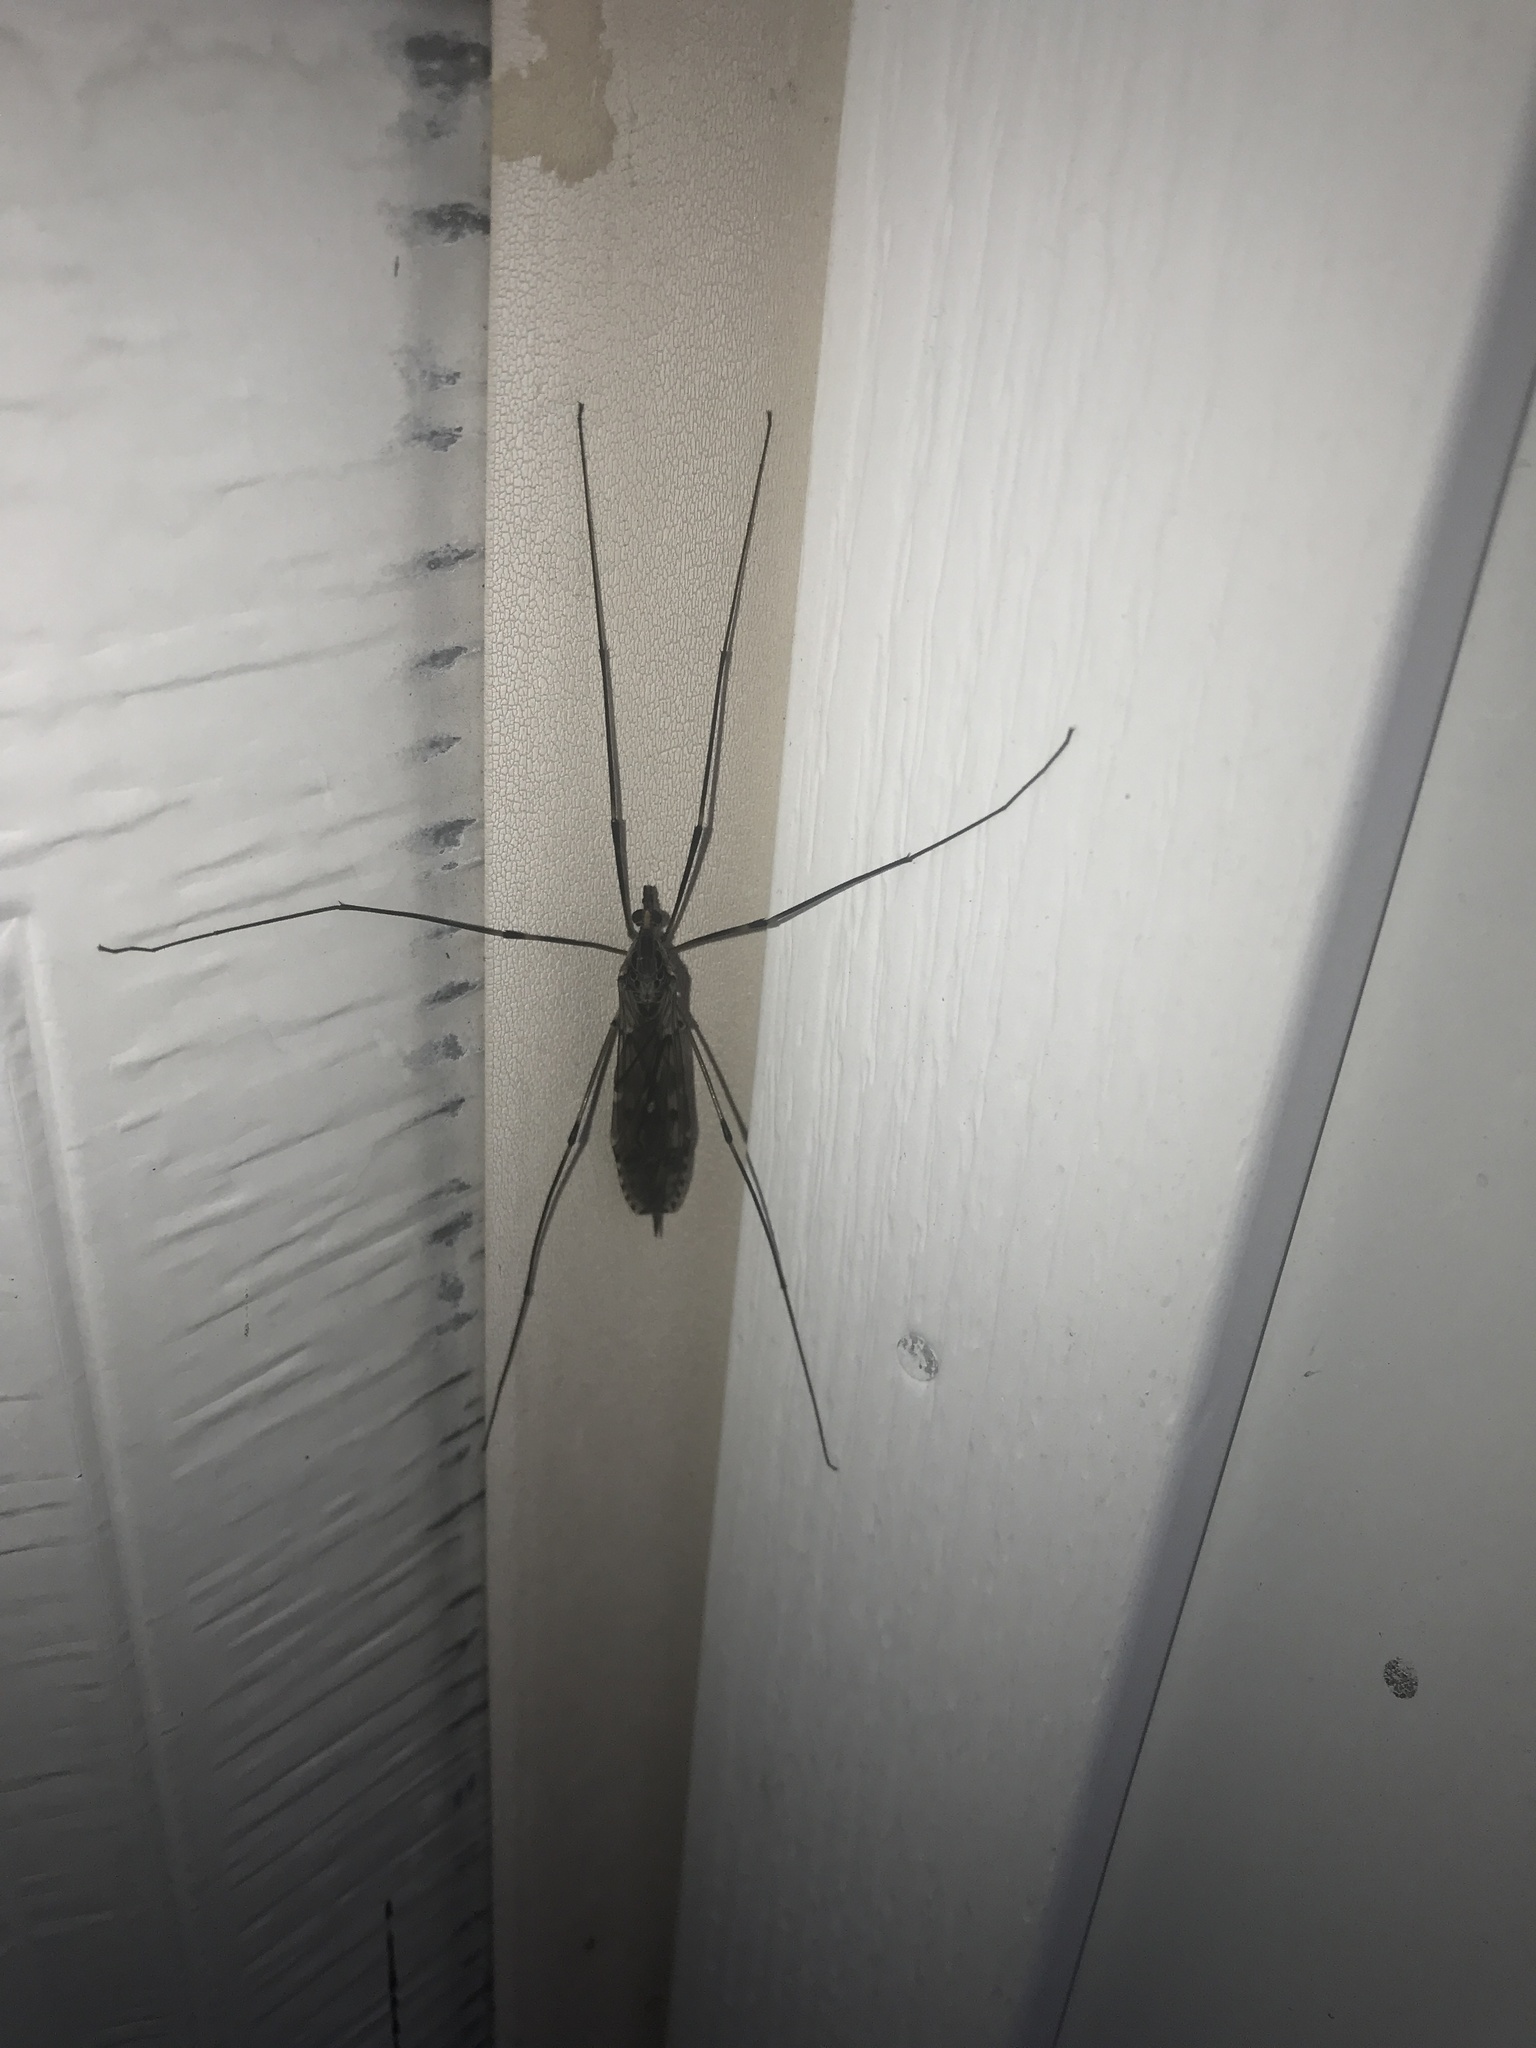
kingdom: Animalia
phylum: Arthropoda
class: Insecta
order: Diptera
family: Tipulidae
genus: Tipula
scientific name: Tipula abdominalis
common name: Giant crane fly
